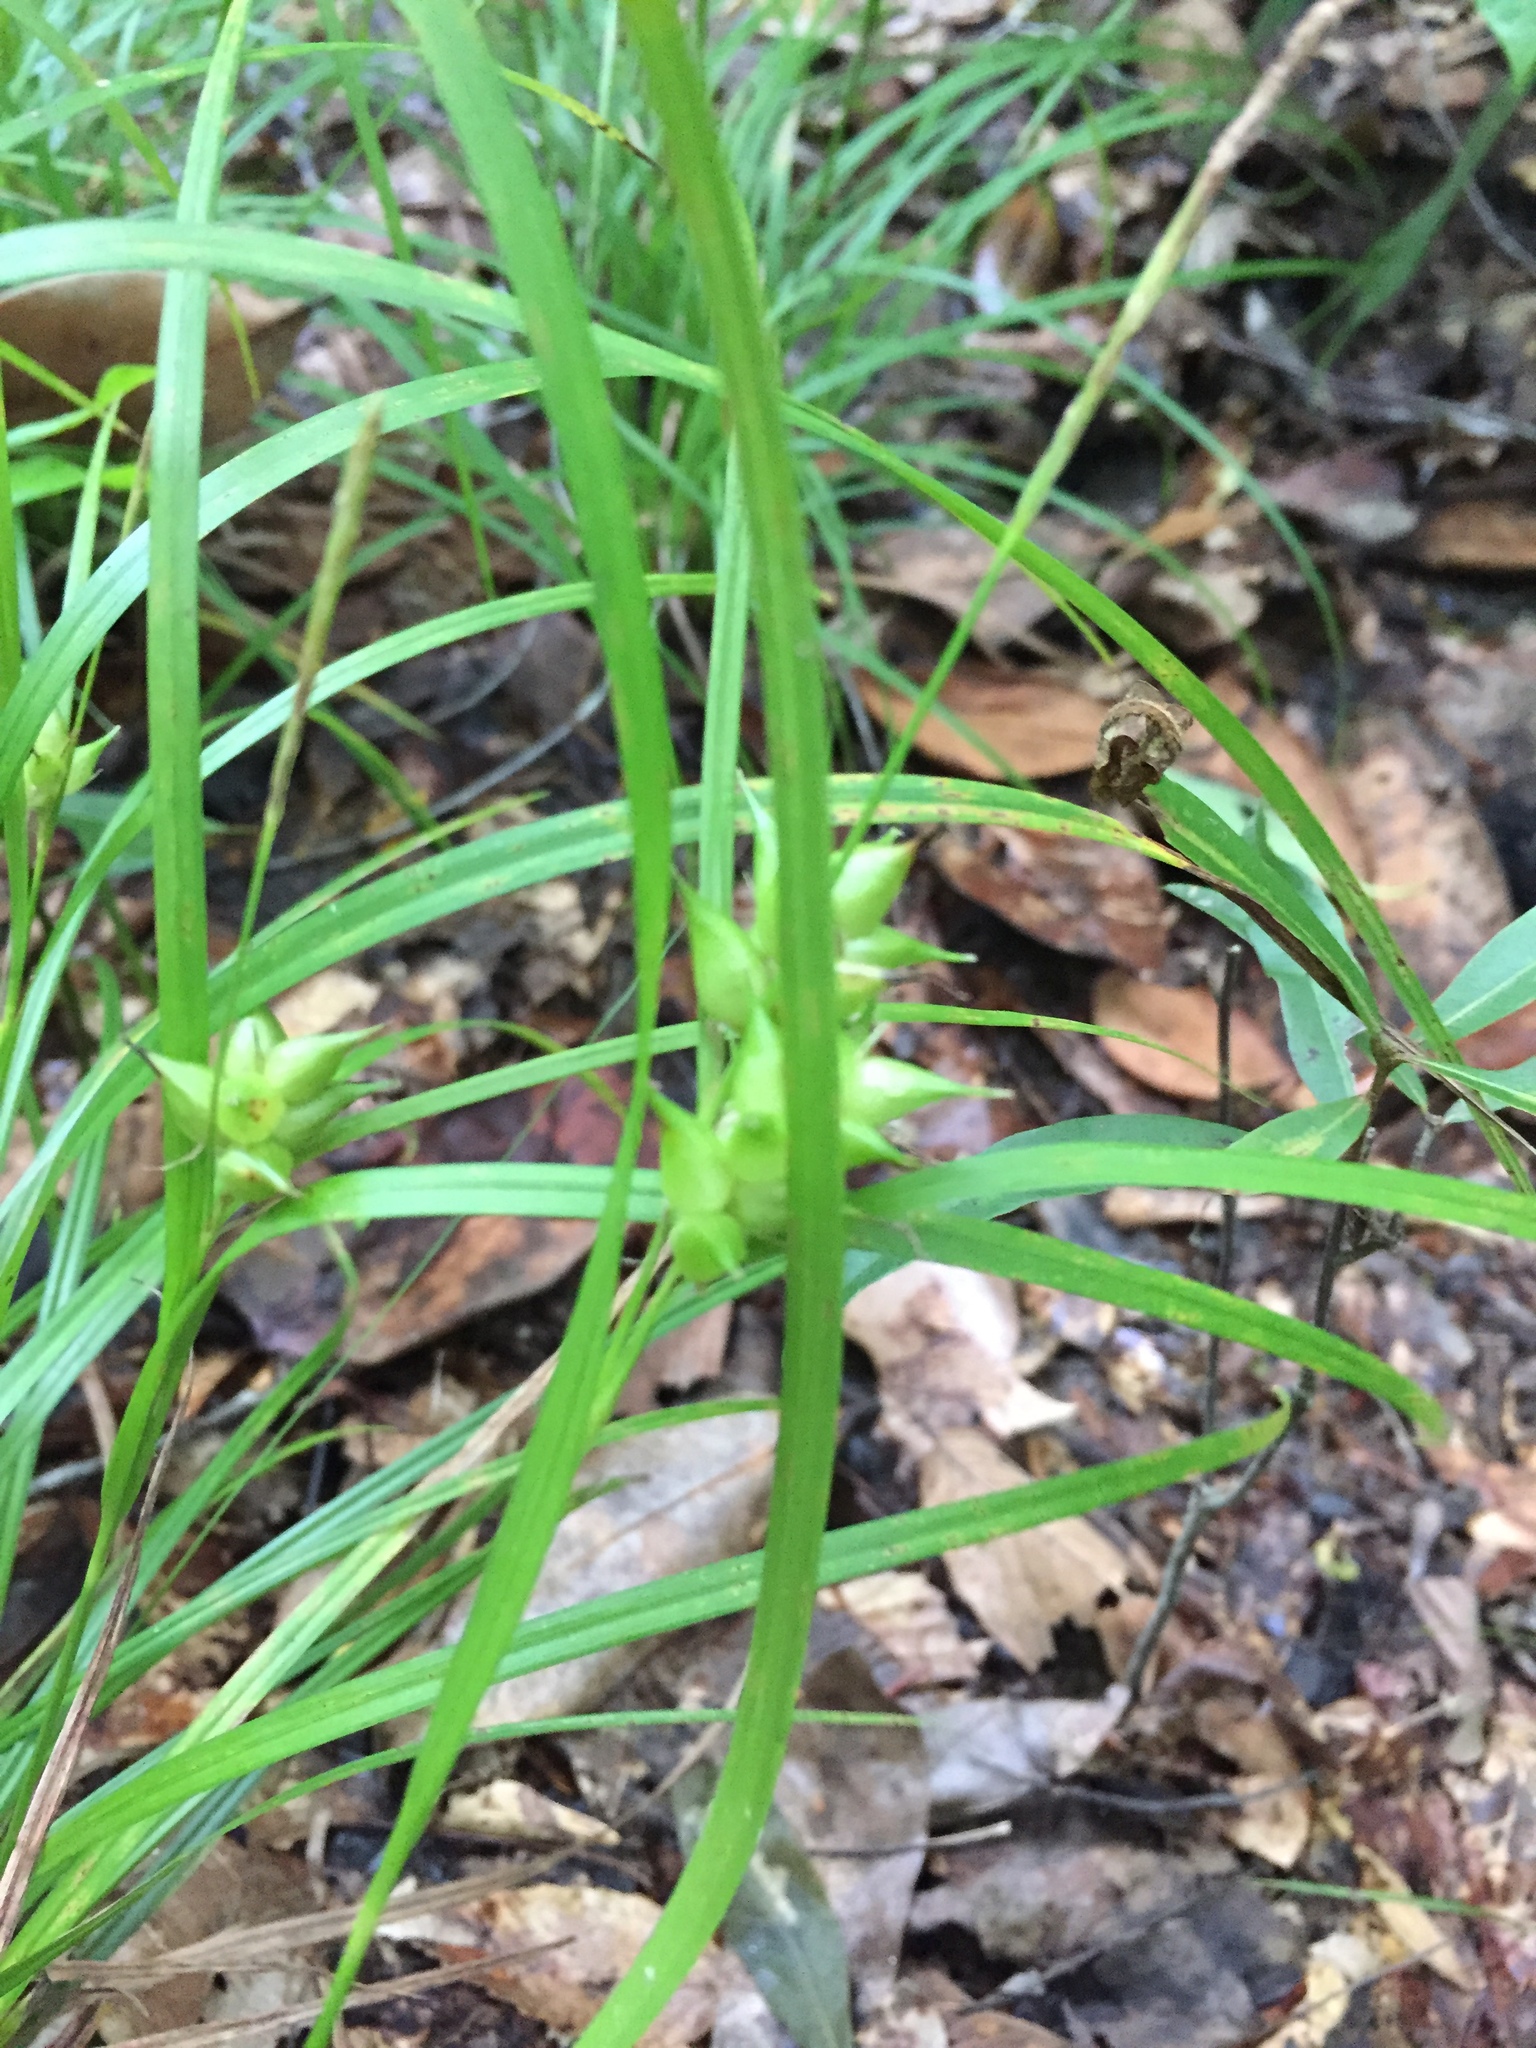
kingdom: Plantae
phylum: Tracheophyta
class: Liliopsida
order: Poales
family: Cyperaceae
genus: Carex
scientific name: Carex intumescens
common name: Greater bladder sedge
